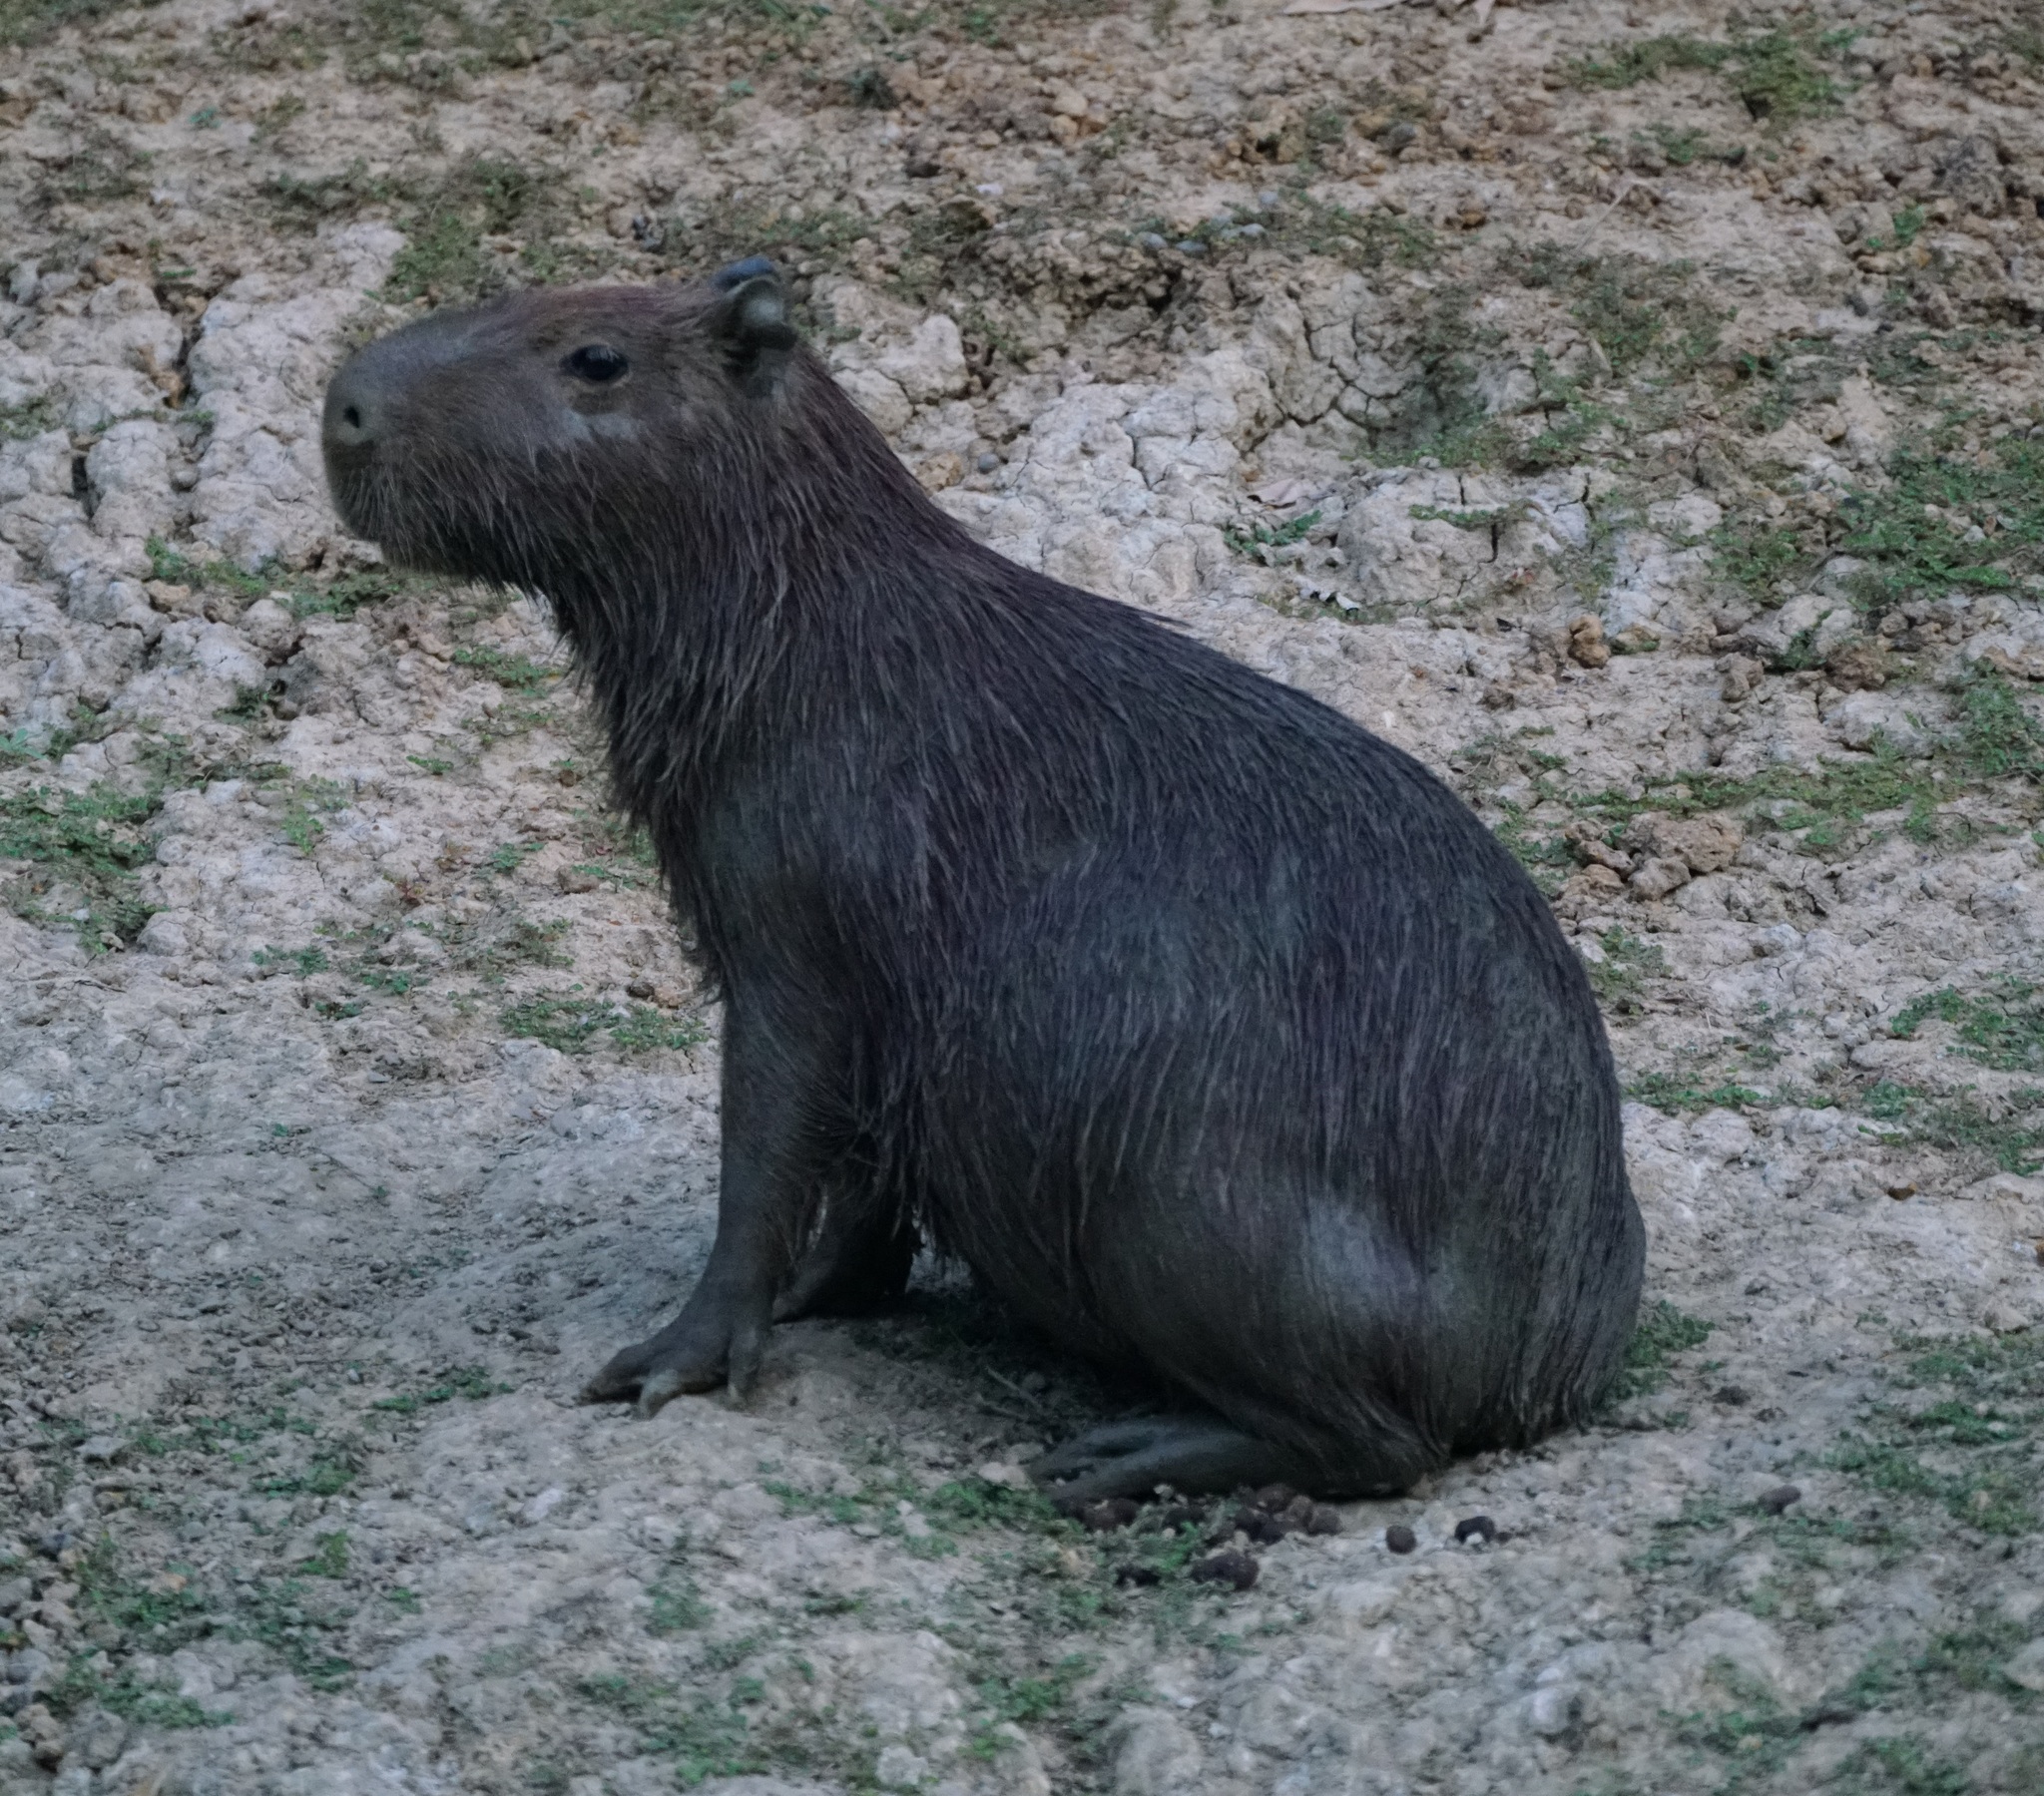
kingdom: Animalia
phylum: Chordata
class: Mammalia
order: Rodentia
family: Caviidae
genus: Hydrochoerus
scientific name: Hydrochoerus hydrochaeris
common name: Capybara
